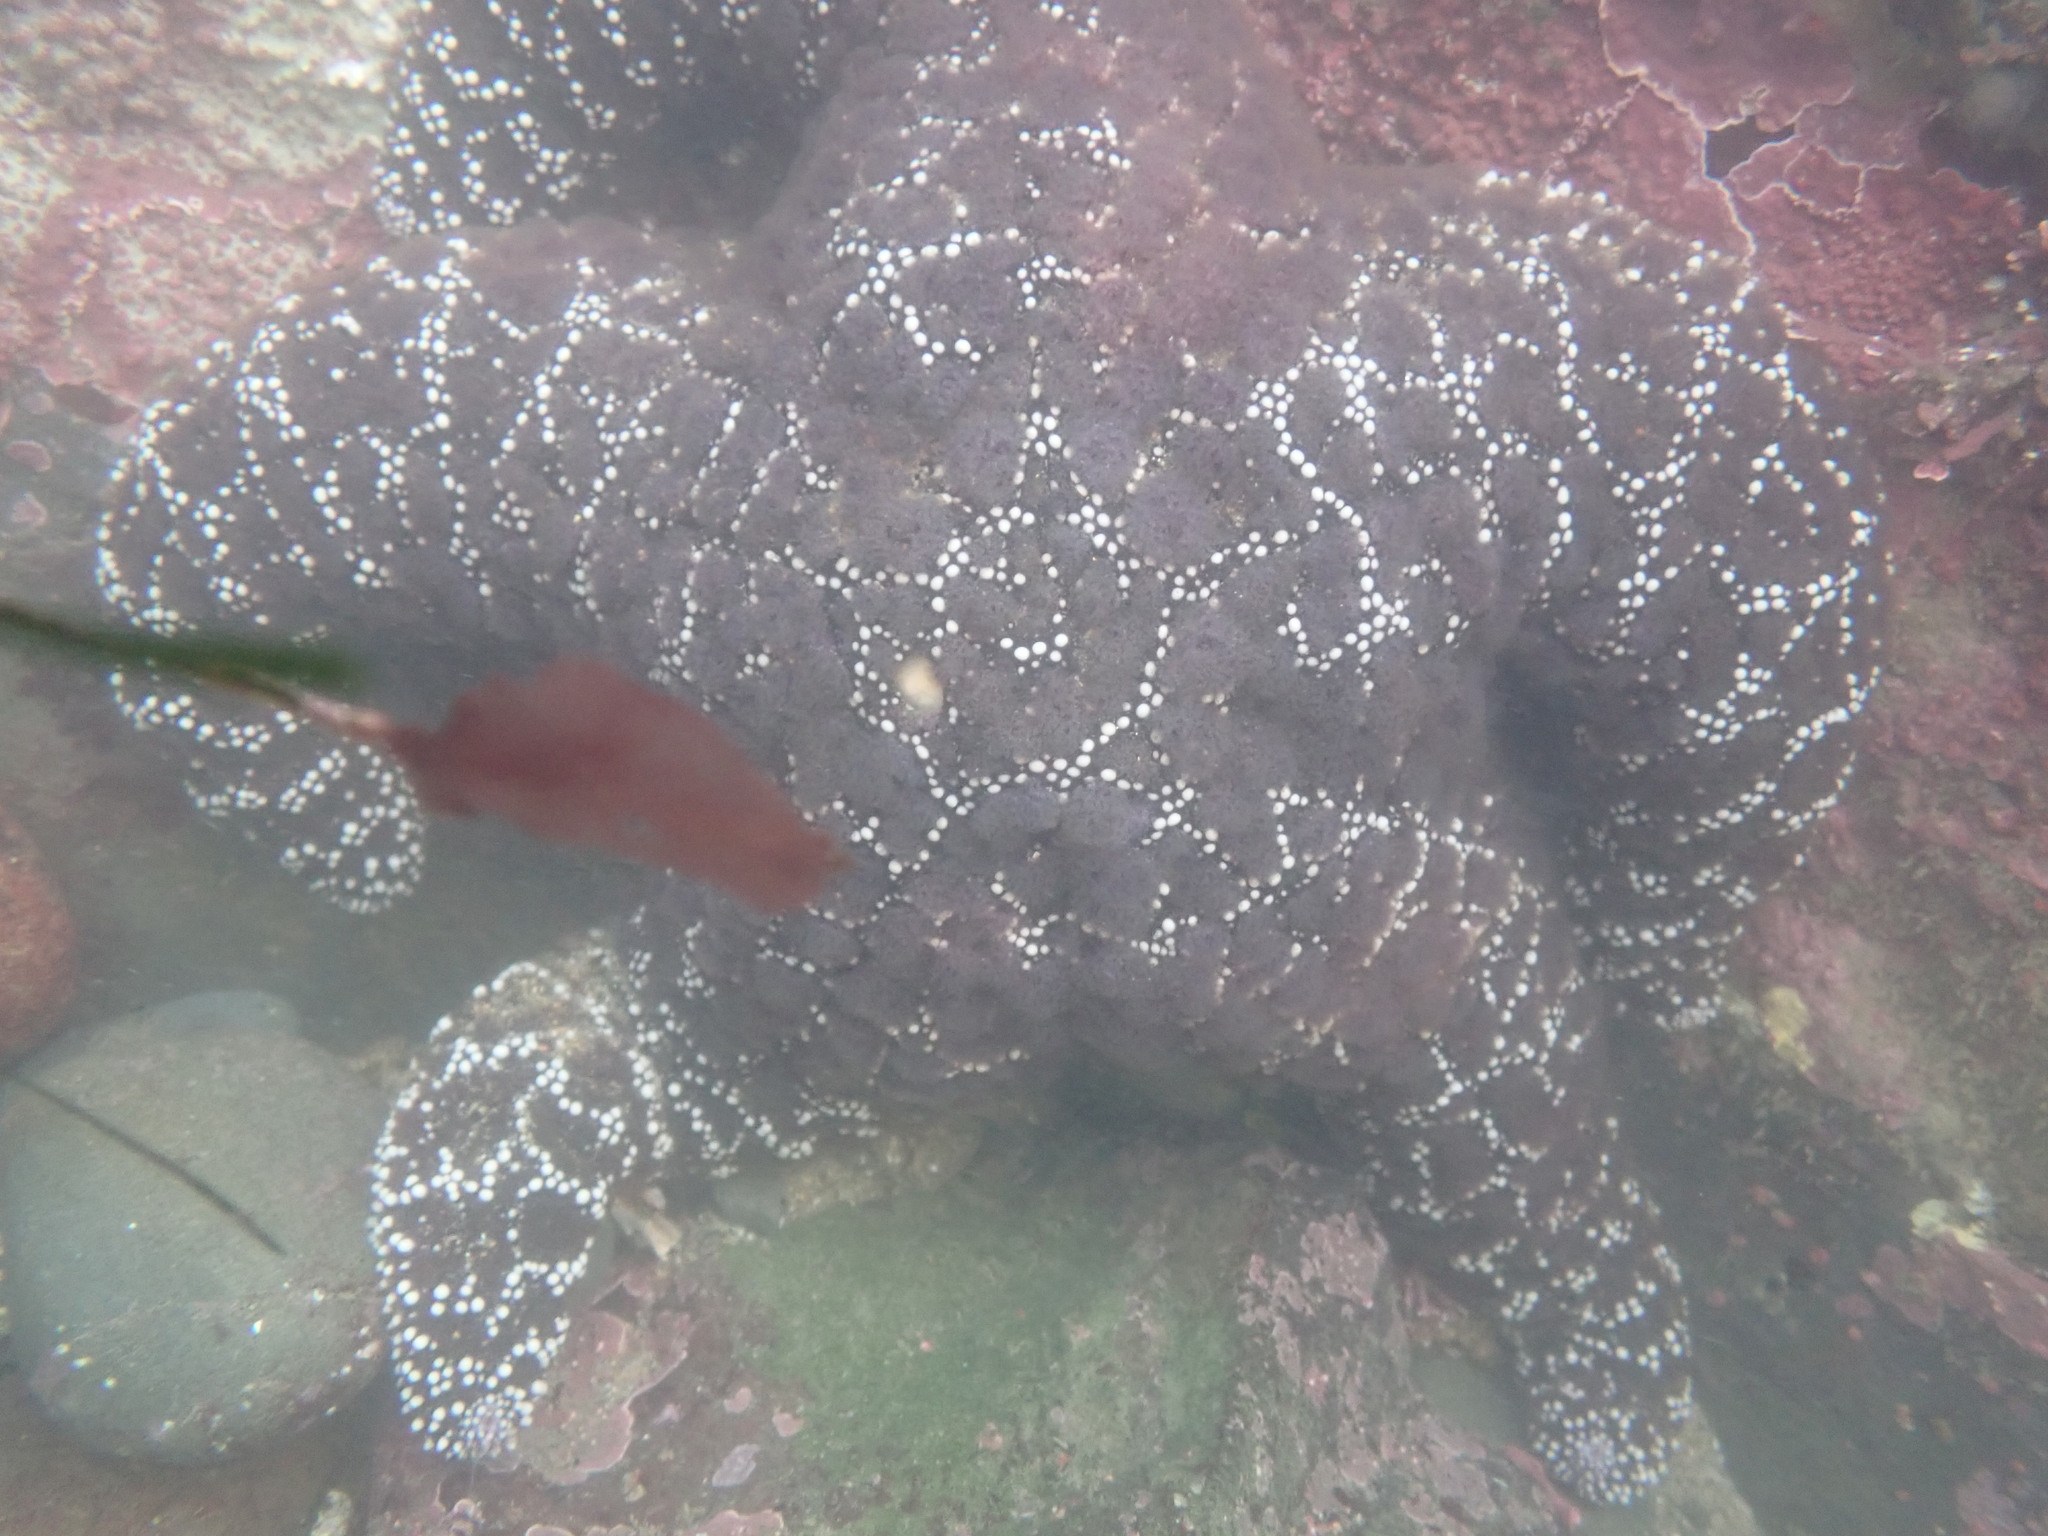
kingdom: Animalia
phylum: Echinodermata
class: Asteroidea
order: Forcipulatida
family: Asteriidae
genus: Pisaster
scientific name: Pisaster ochraceus
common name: Ochre stars
